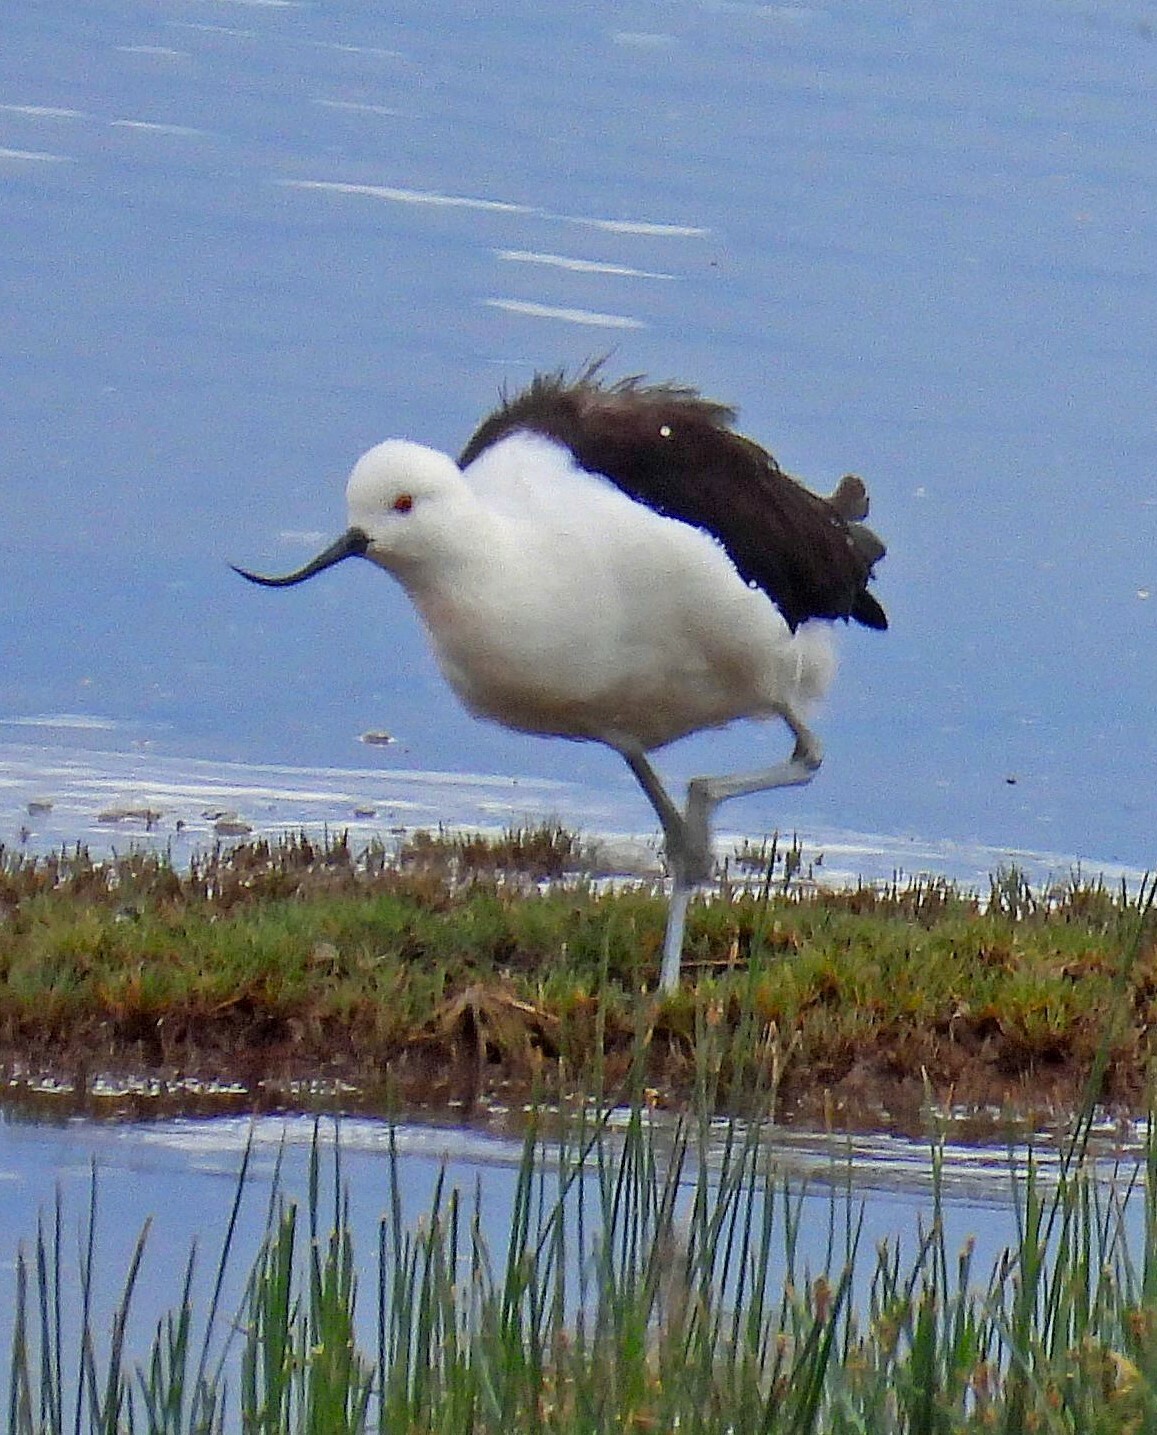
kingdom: Animalia
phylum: Chordata
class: Aves
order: Charadriiformes
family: Recurvirostridae
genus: Recurvirostra
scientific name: Recurvirostra andina
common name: Andean avocet
